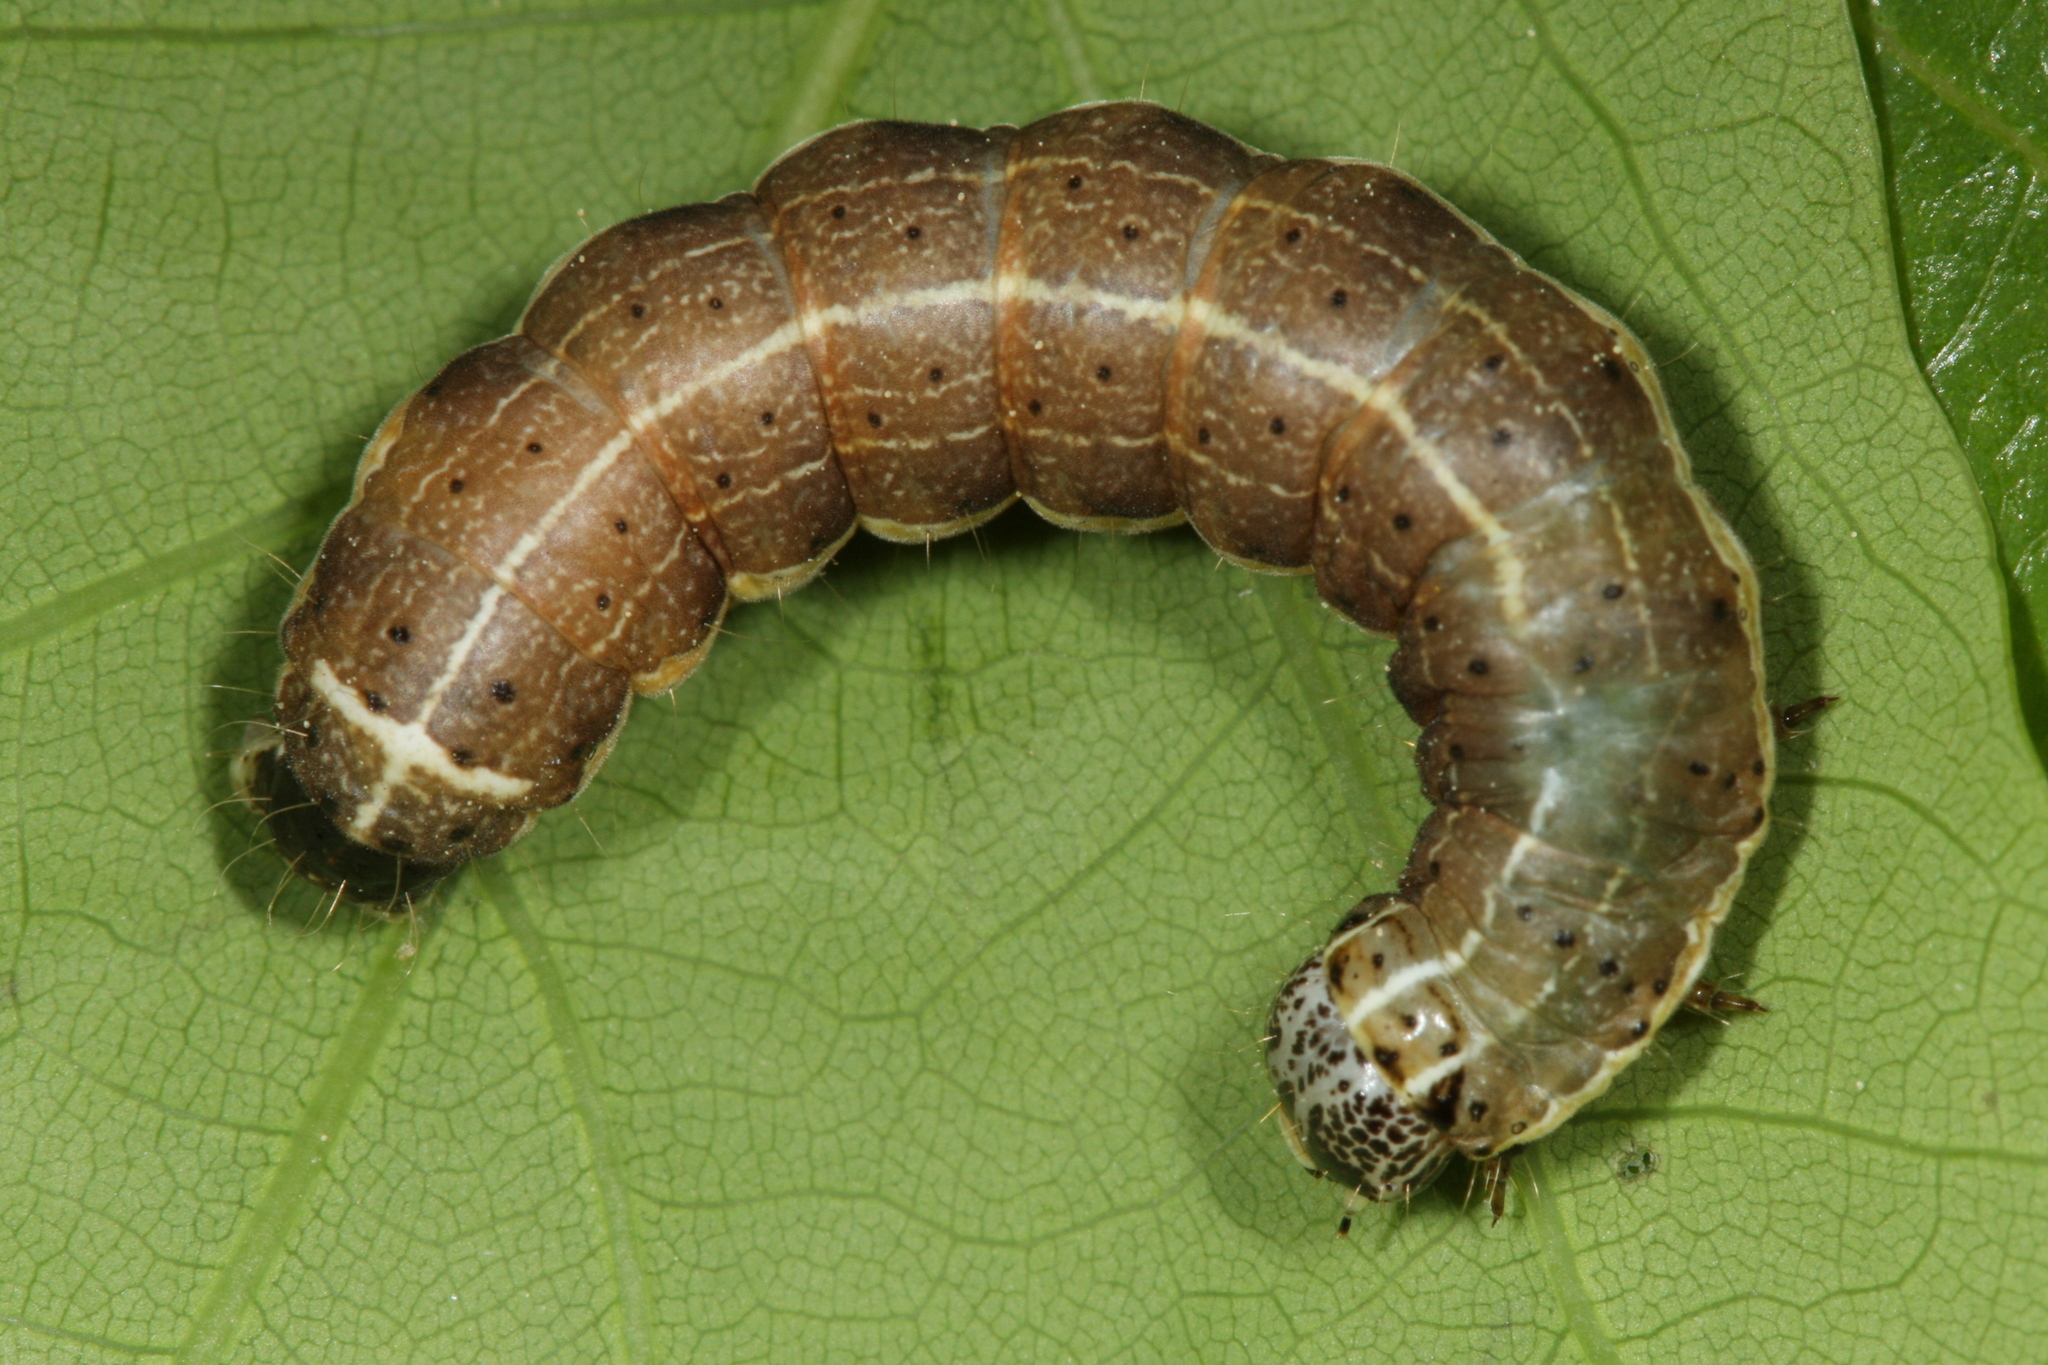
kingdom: Animalia
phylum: Arthropoda
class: Insecta
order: Lepidoptera
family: Noctuidae
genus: Orthosia
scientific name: Orthosia cruda
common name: Small quaker
